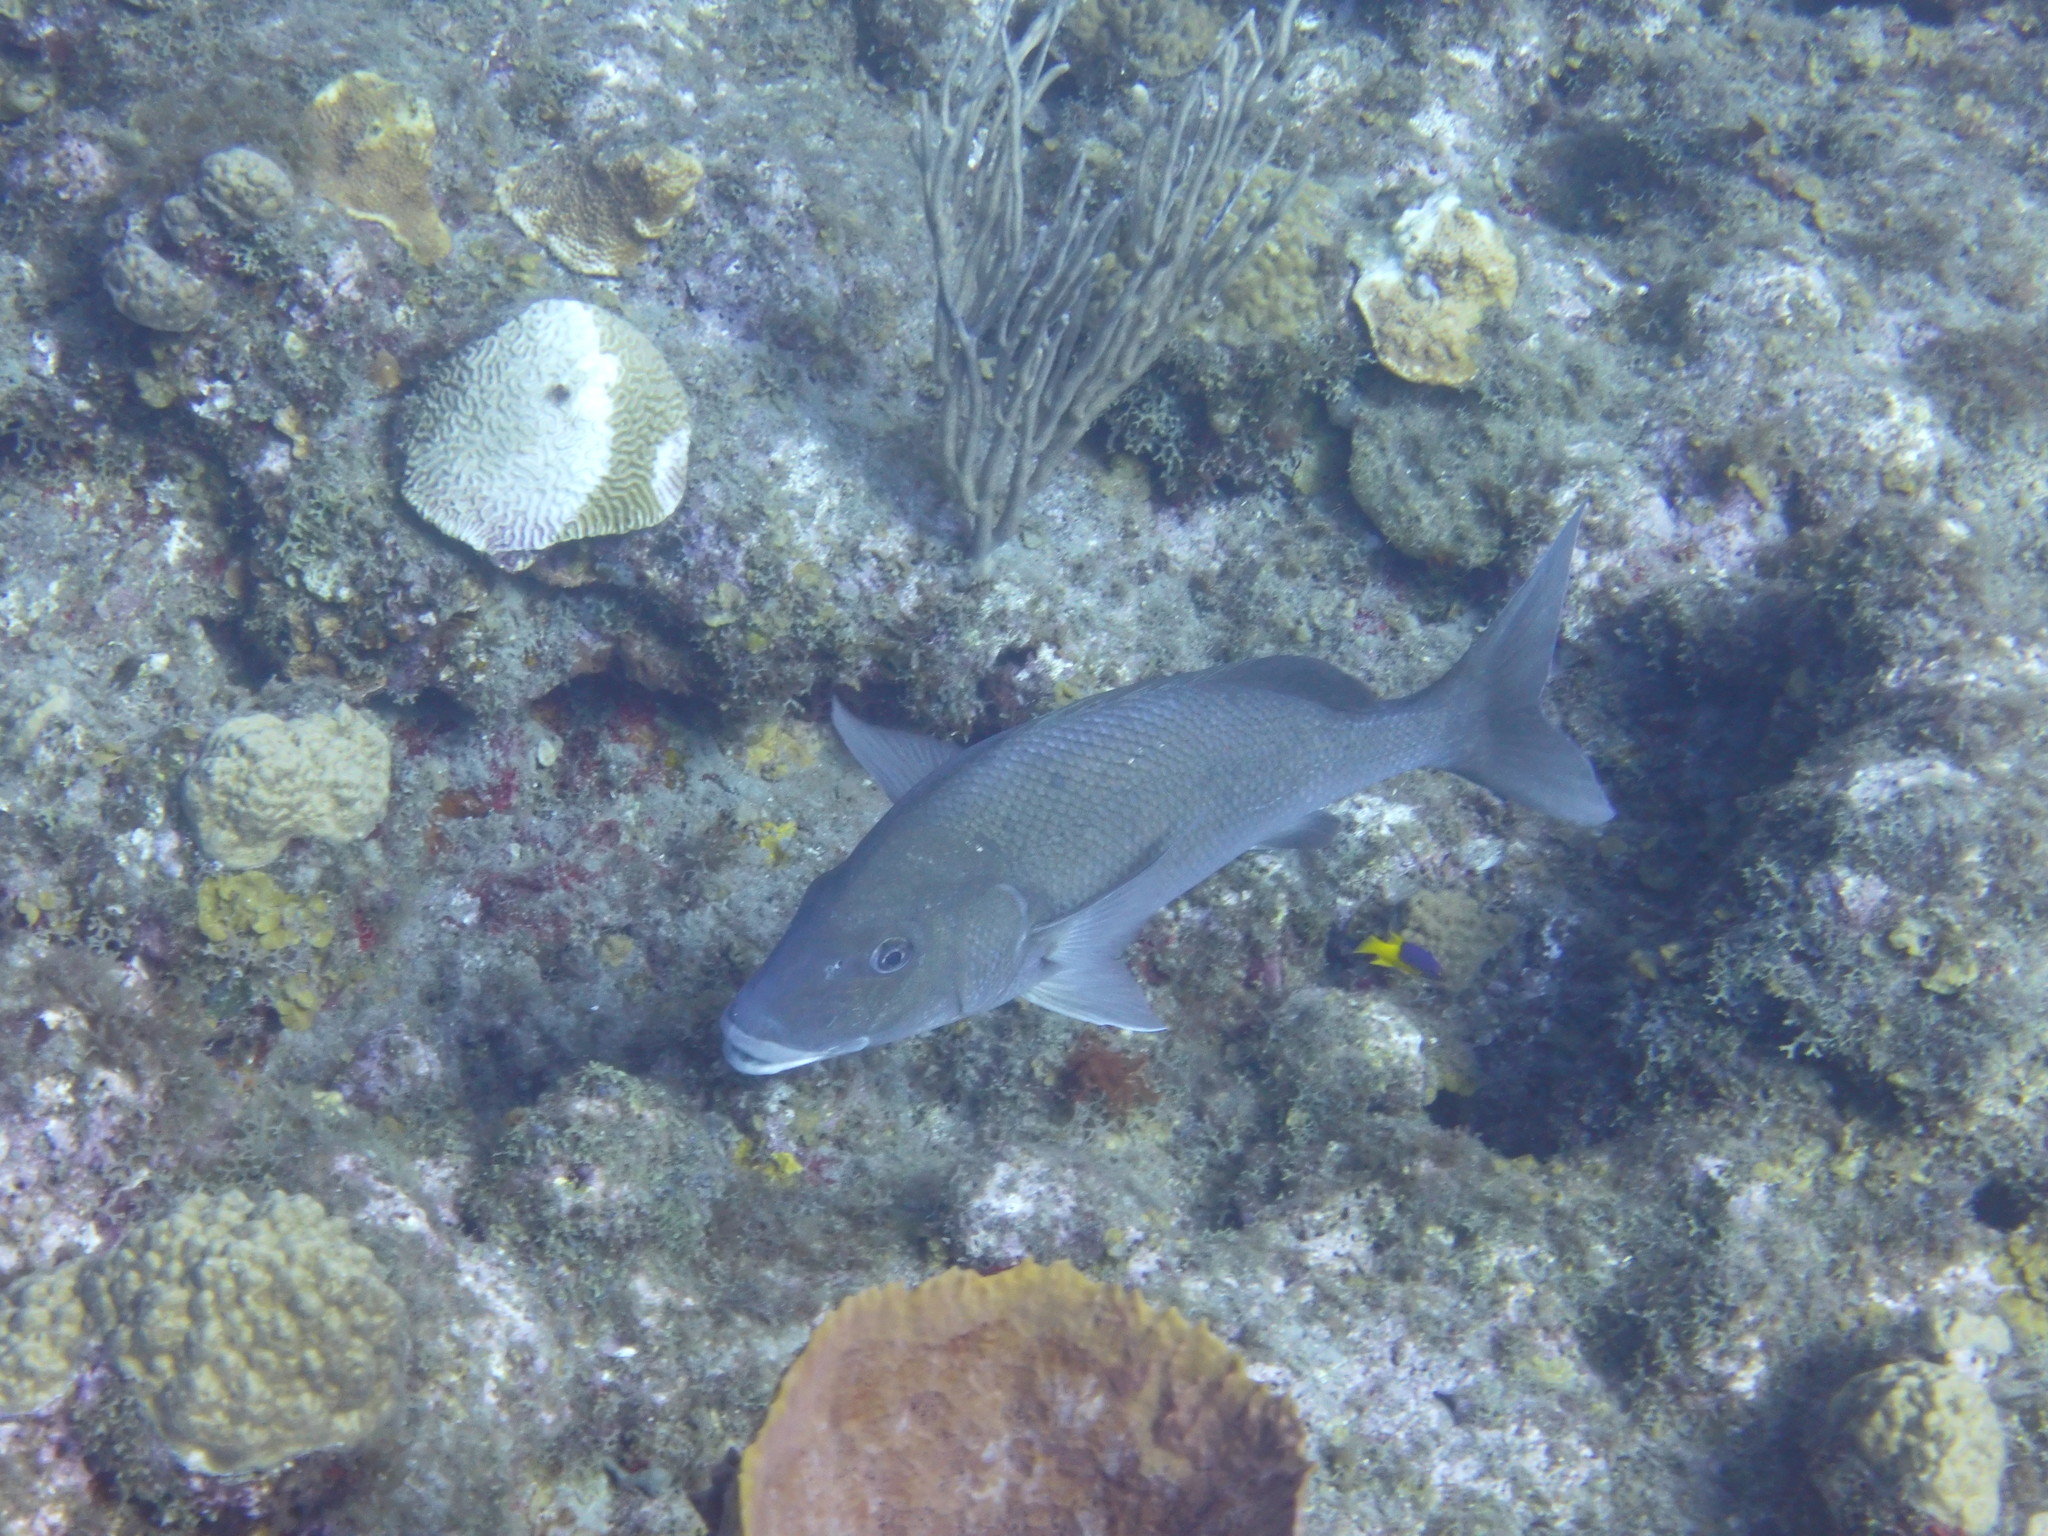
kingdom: Animalia
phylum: Chordata
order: Perciformes
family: Haemulidae
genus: Haemulon
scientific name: Haemulon album
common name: Margate
